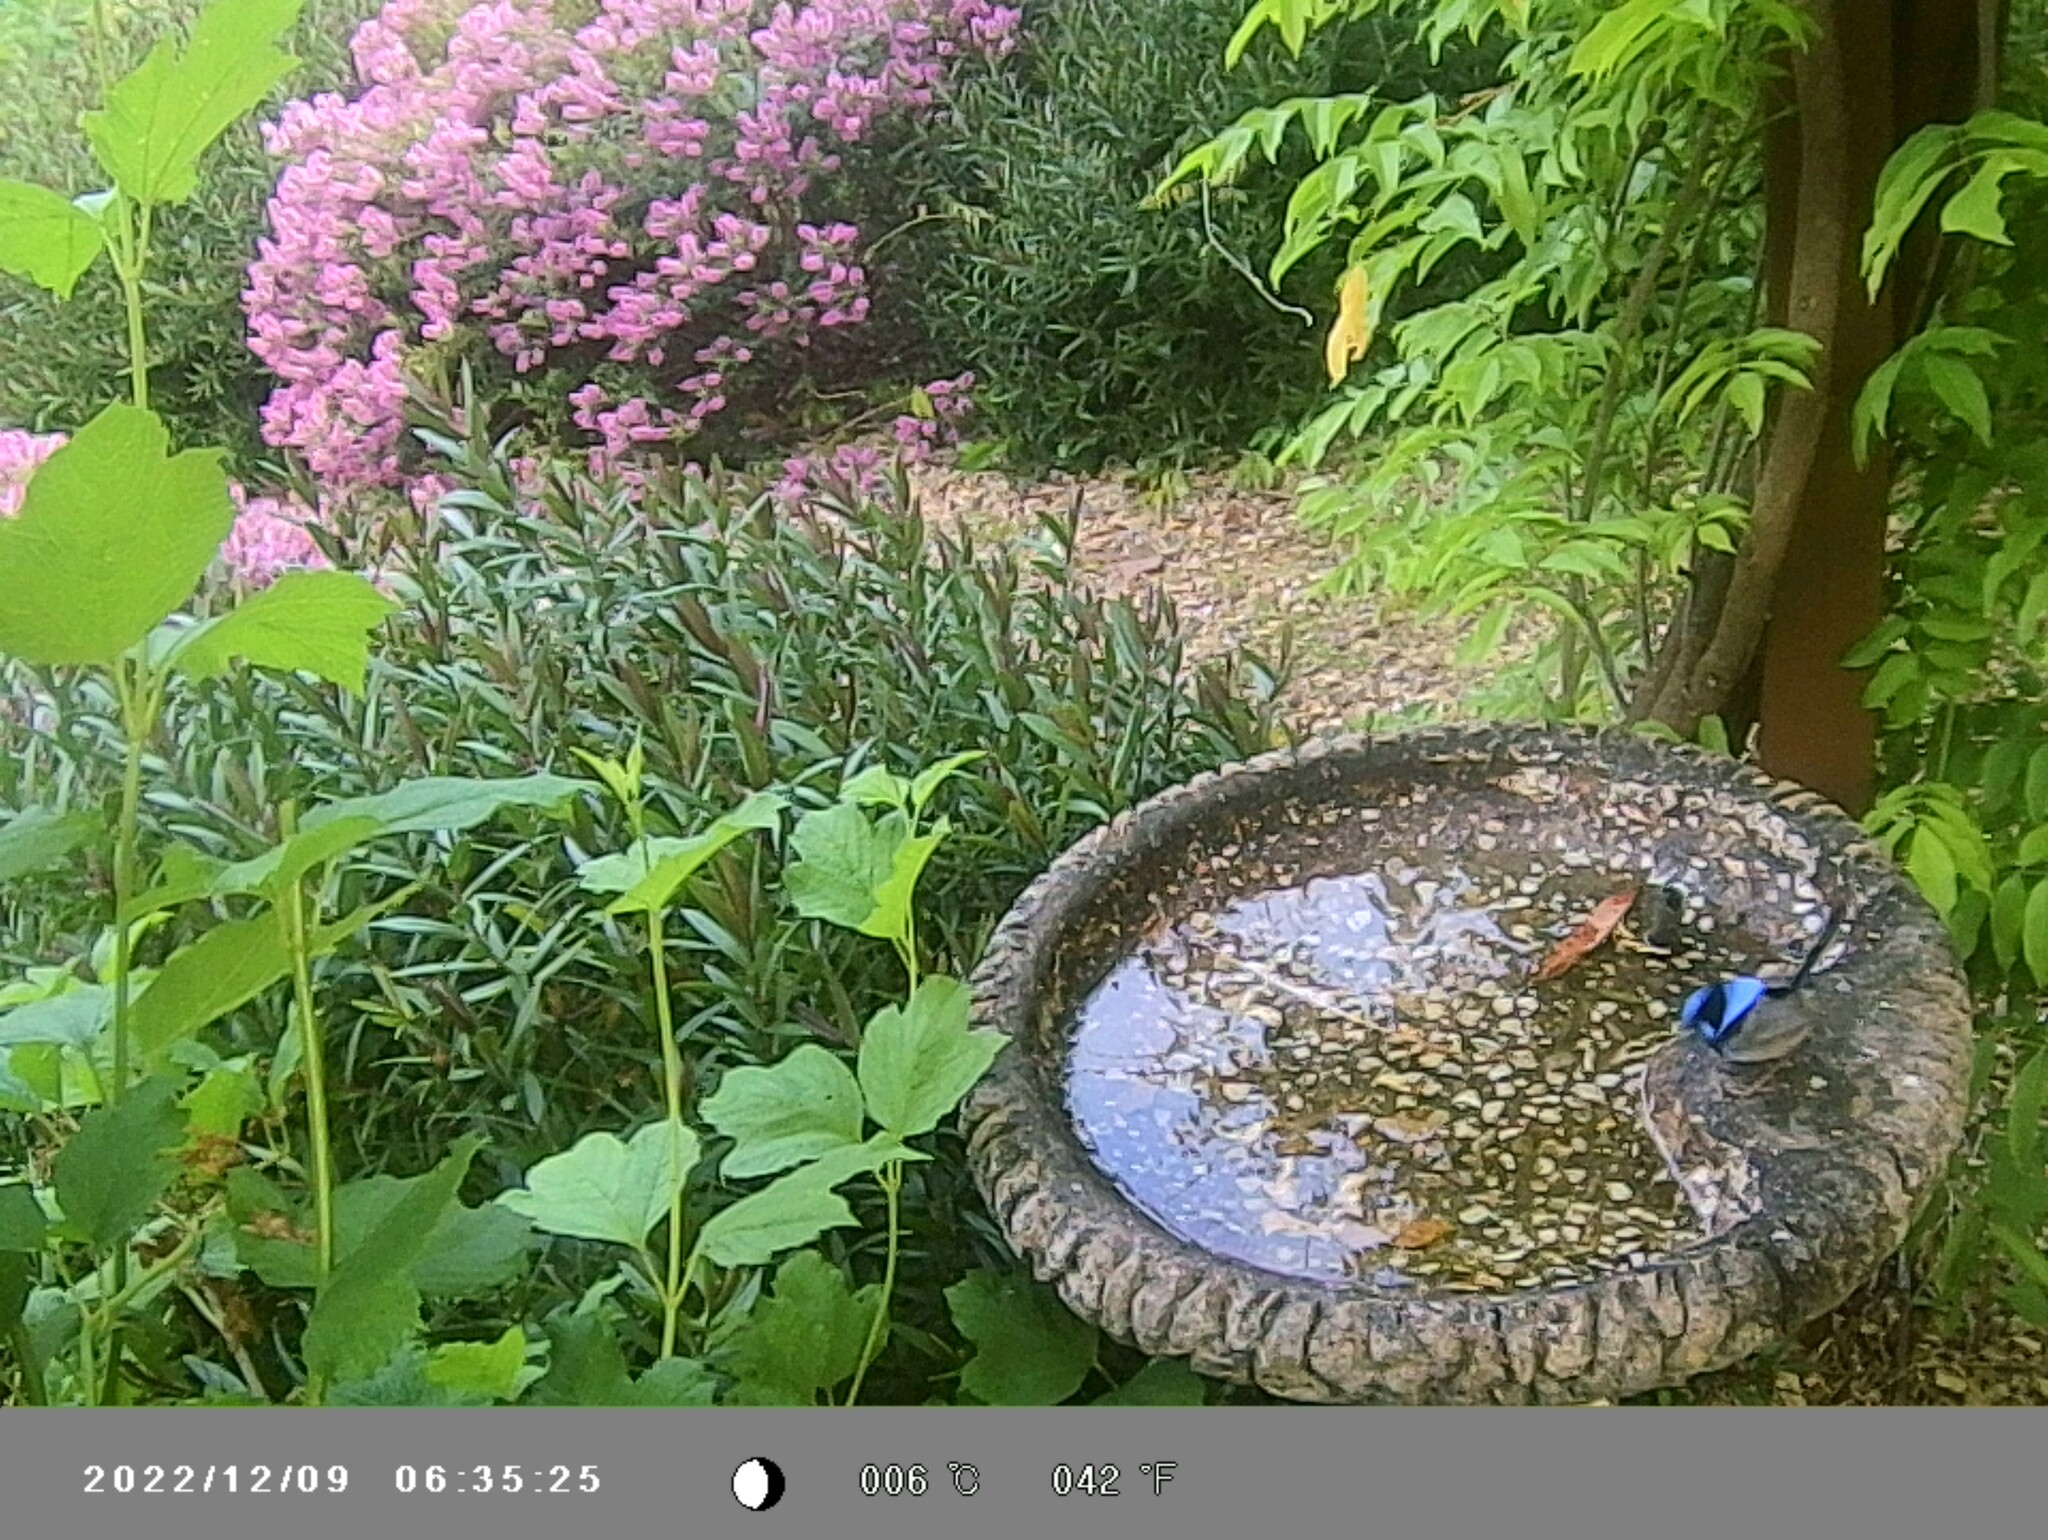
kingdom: Animalia
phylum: Chordata
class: Aves
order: Passeriformes
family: Maluridae
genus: Malurus
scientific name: Malurus cyaneus
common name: Superb fairywren
